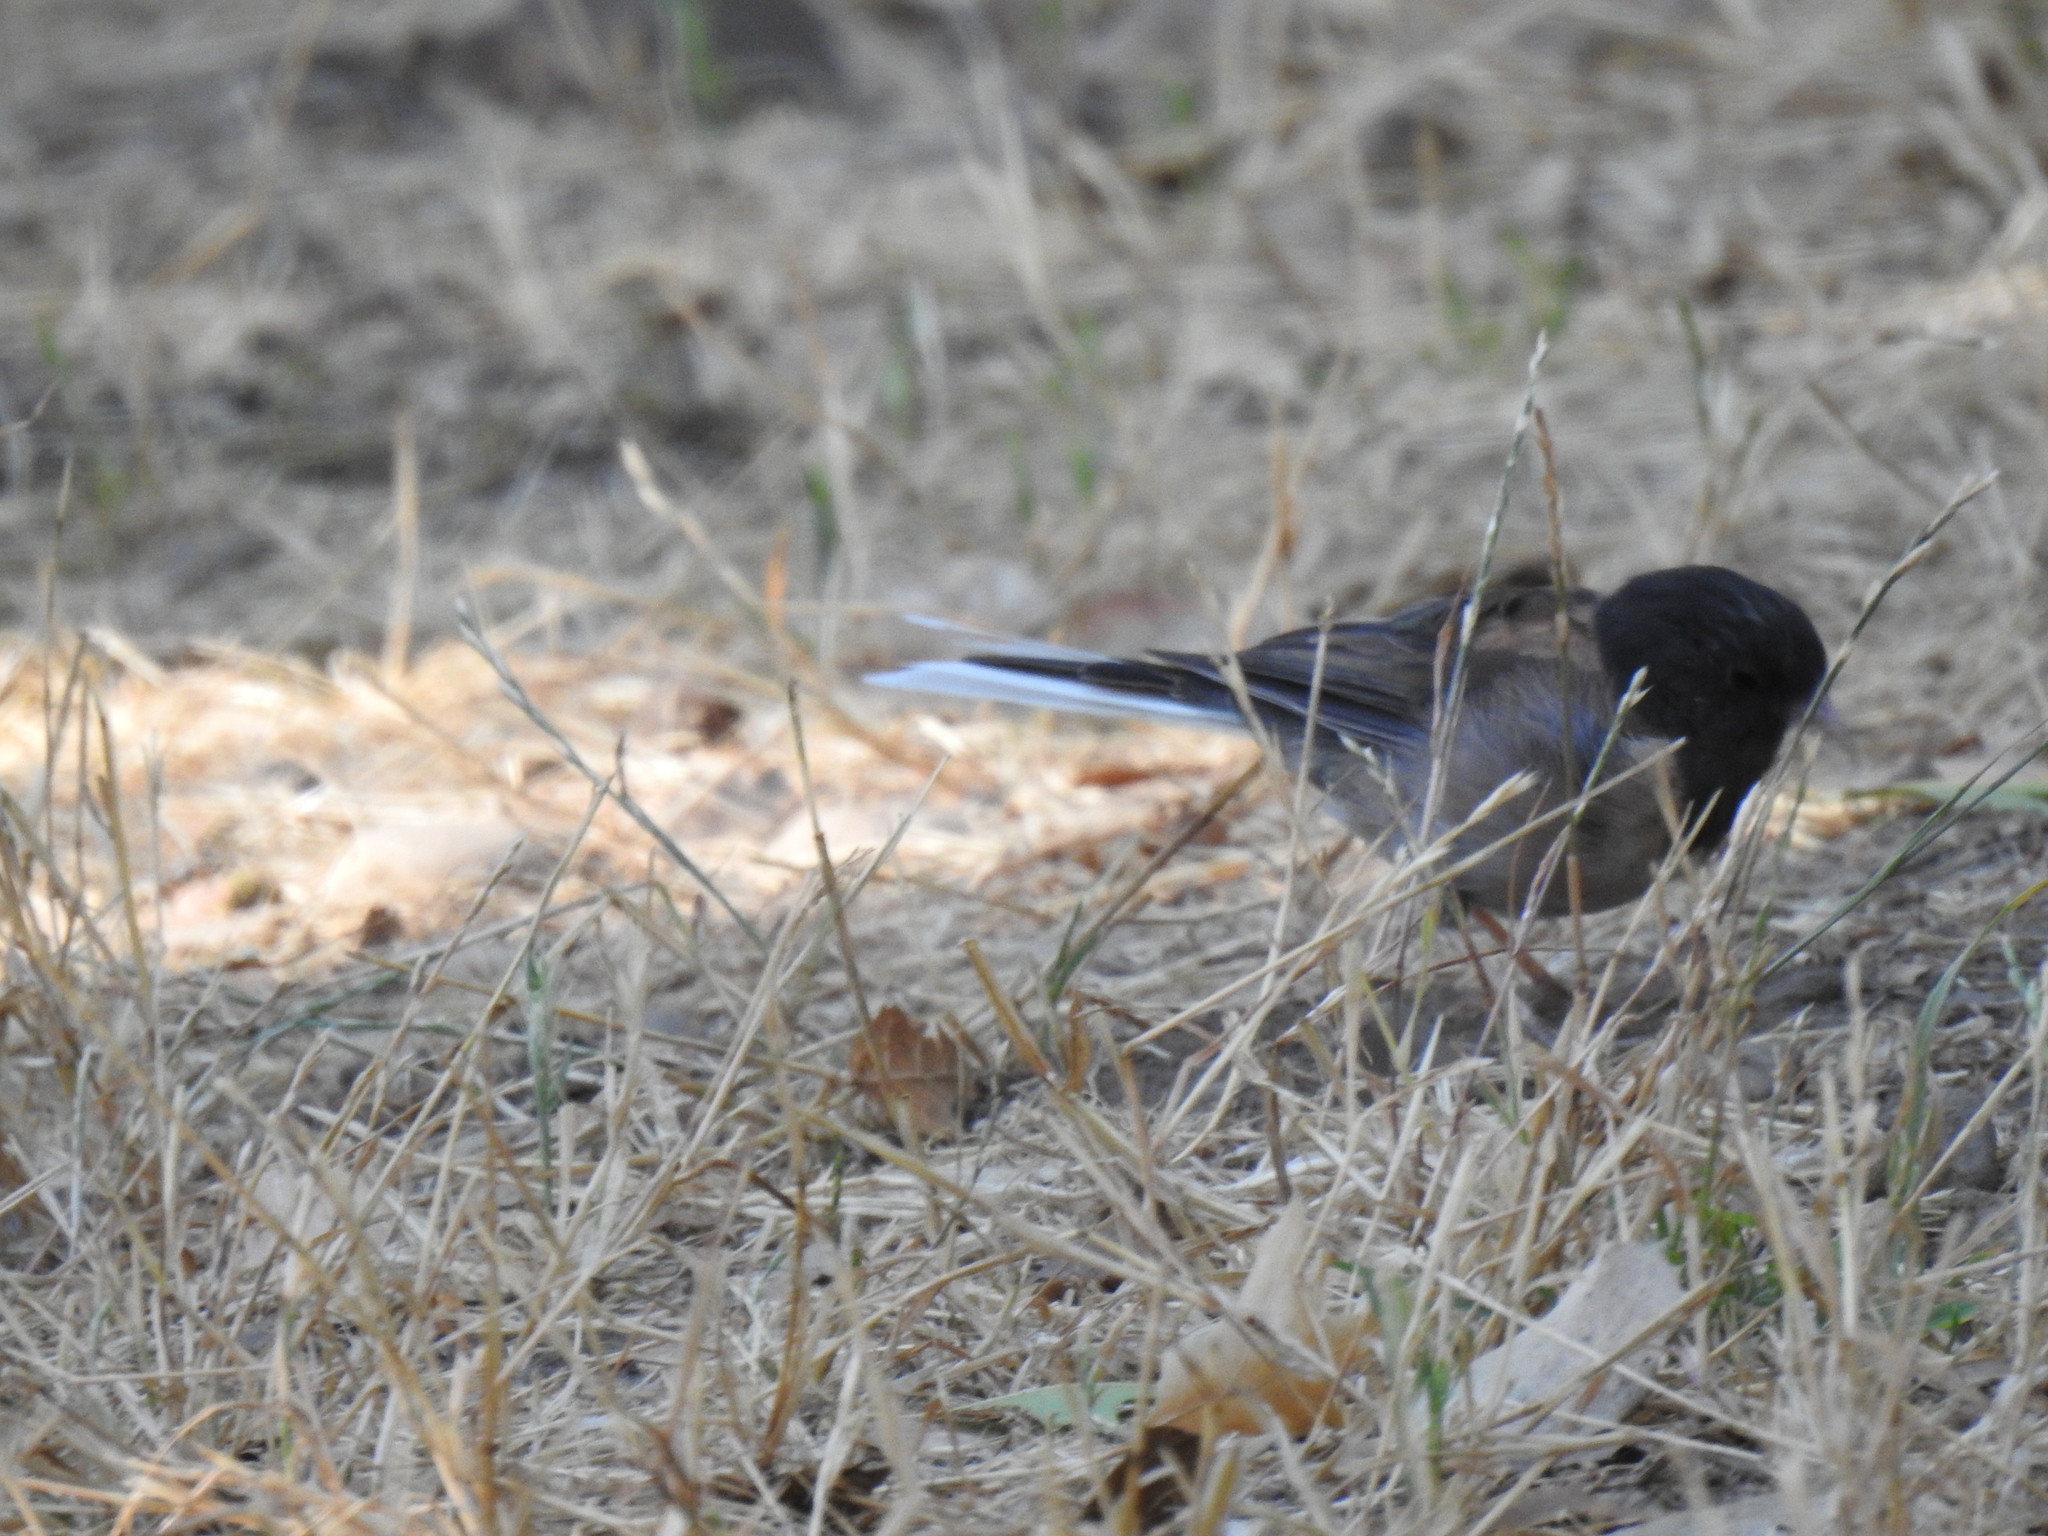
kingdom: Animalia
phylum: Chordata
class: Aves
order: Passeriformes
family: Passerellidae
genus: Junco
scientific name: Junco hyemalis
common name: Dark-eyed junco
